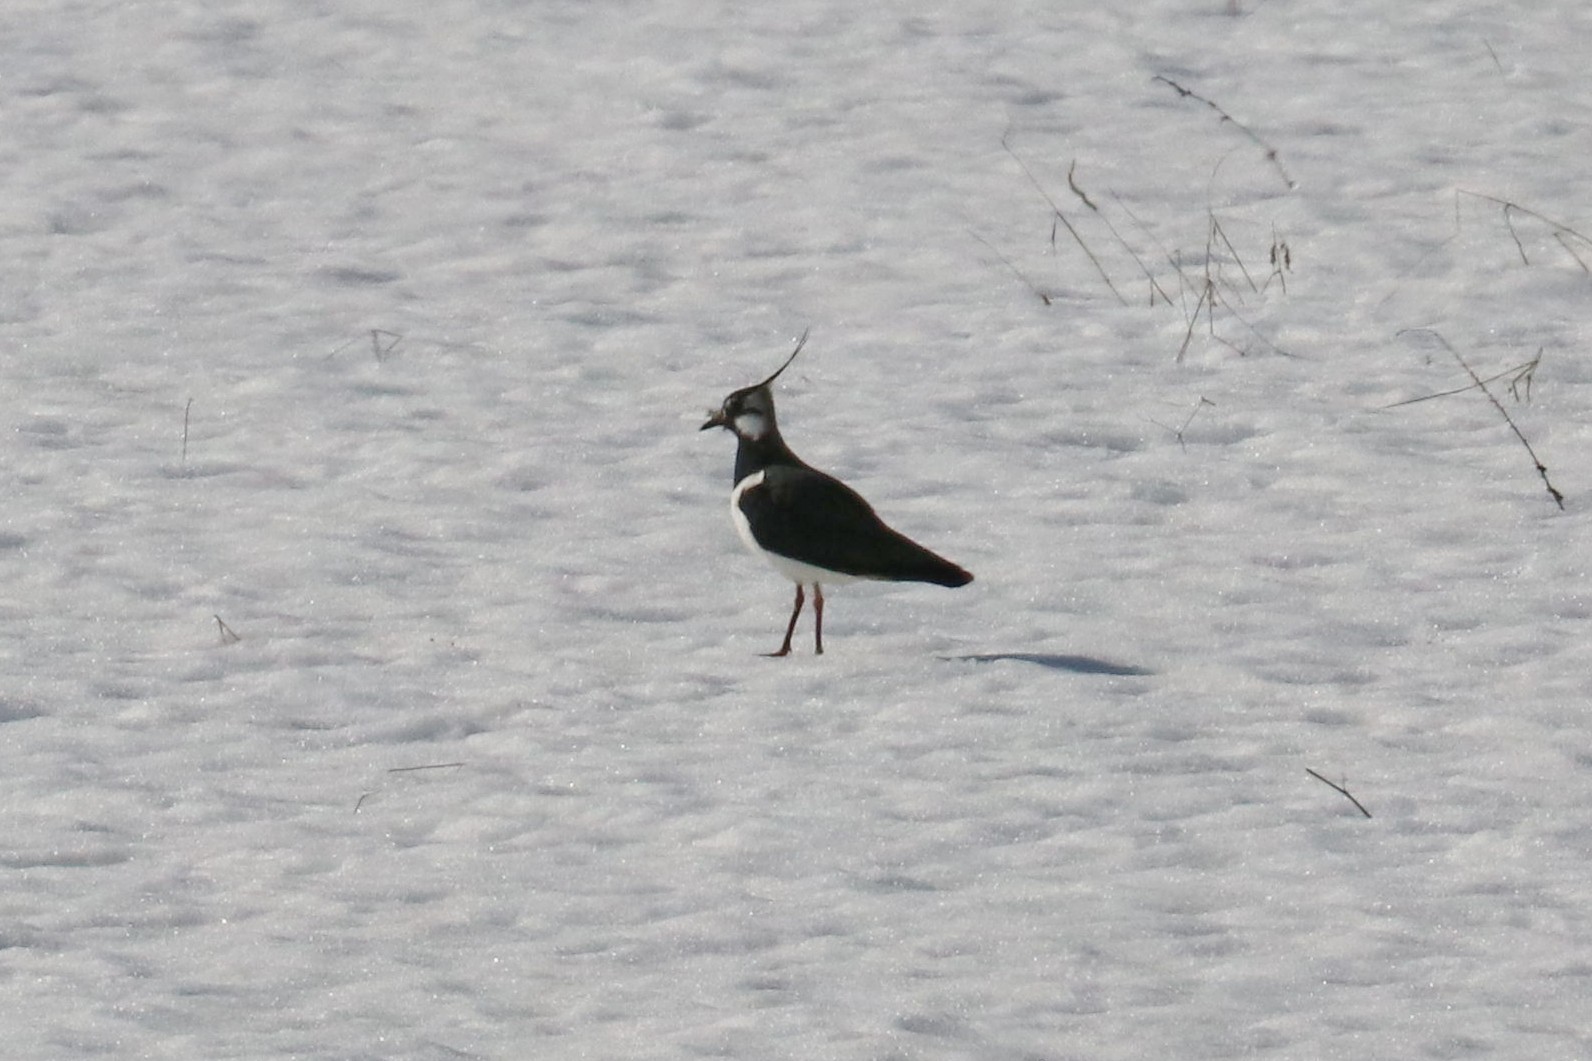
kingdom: Animalia
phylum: Chordata
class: Aves
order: Charadriiformes
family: Charadriidae
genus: Vanellus
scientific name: Vanellus vanellus
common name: Northern lapwing
